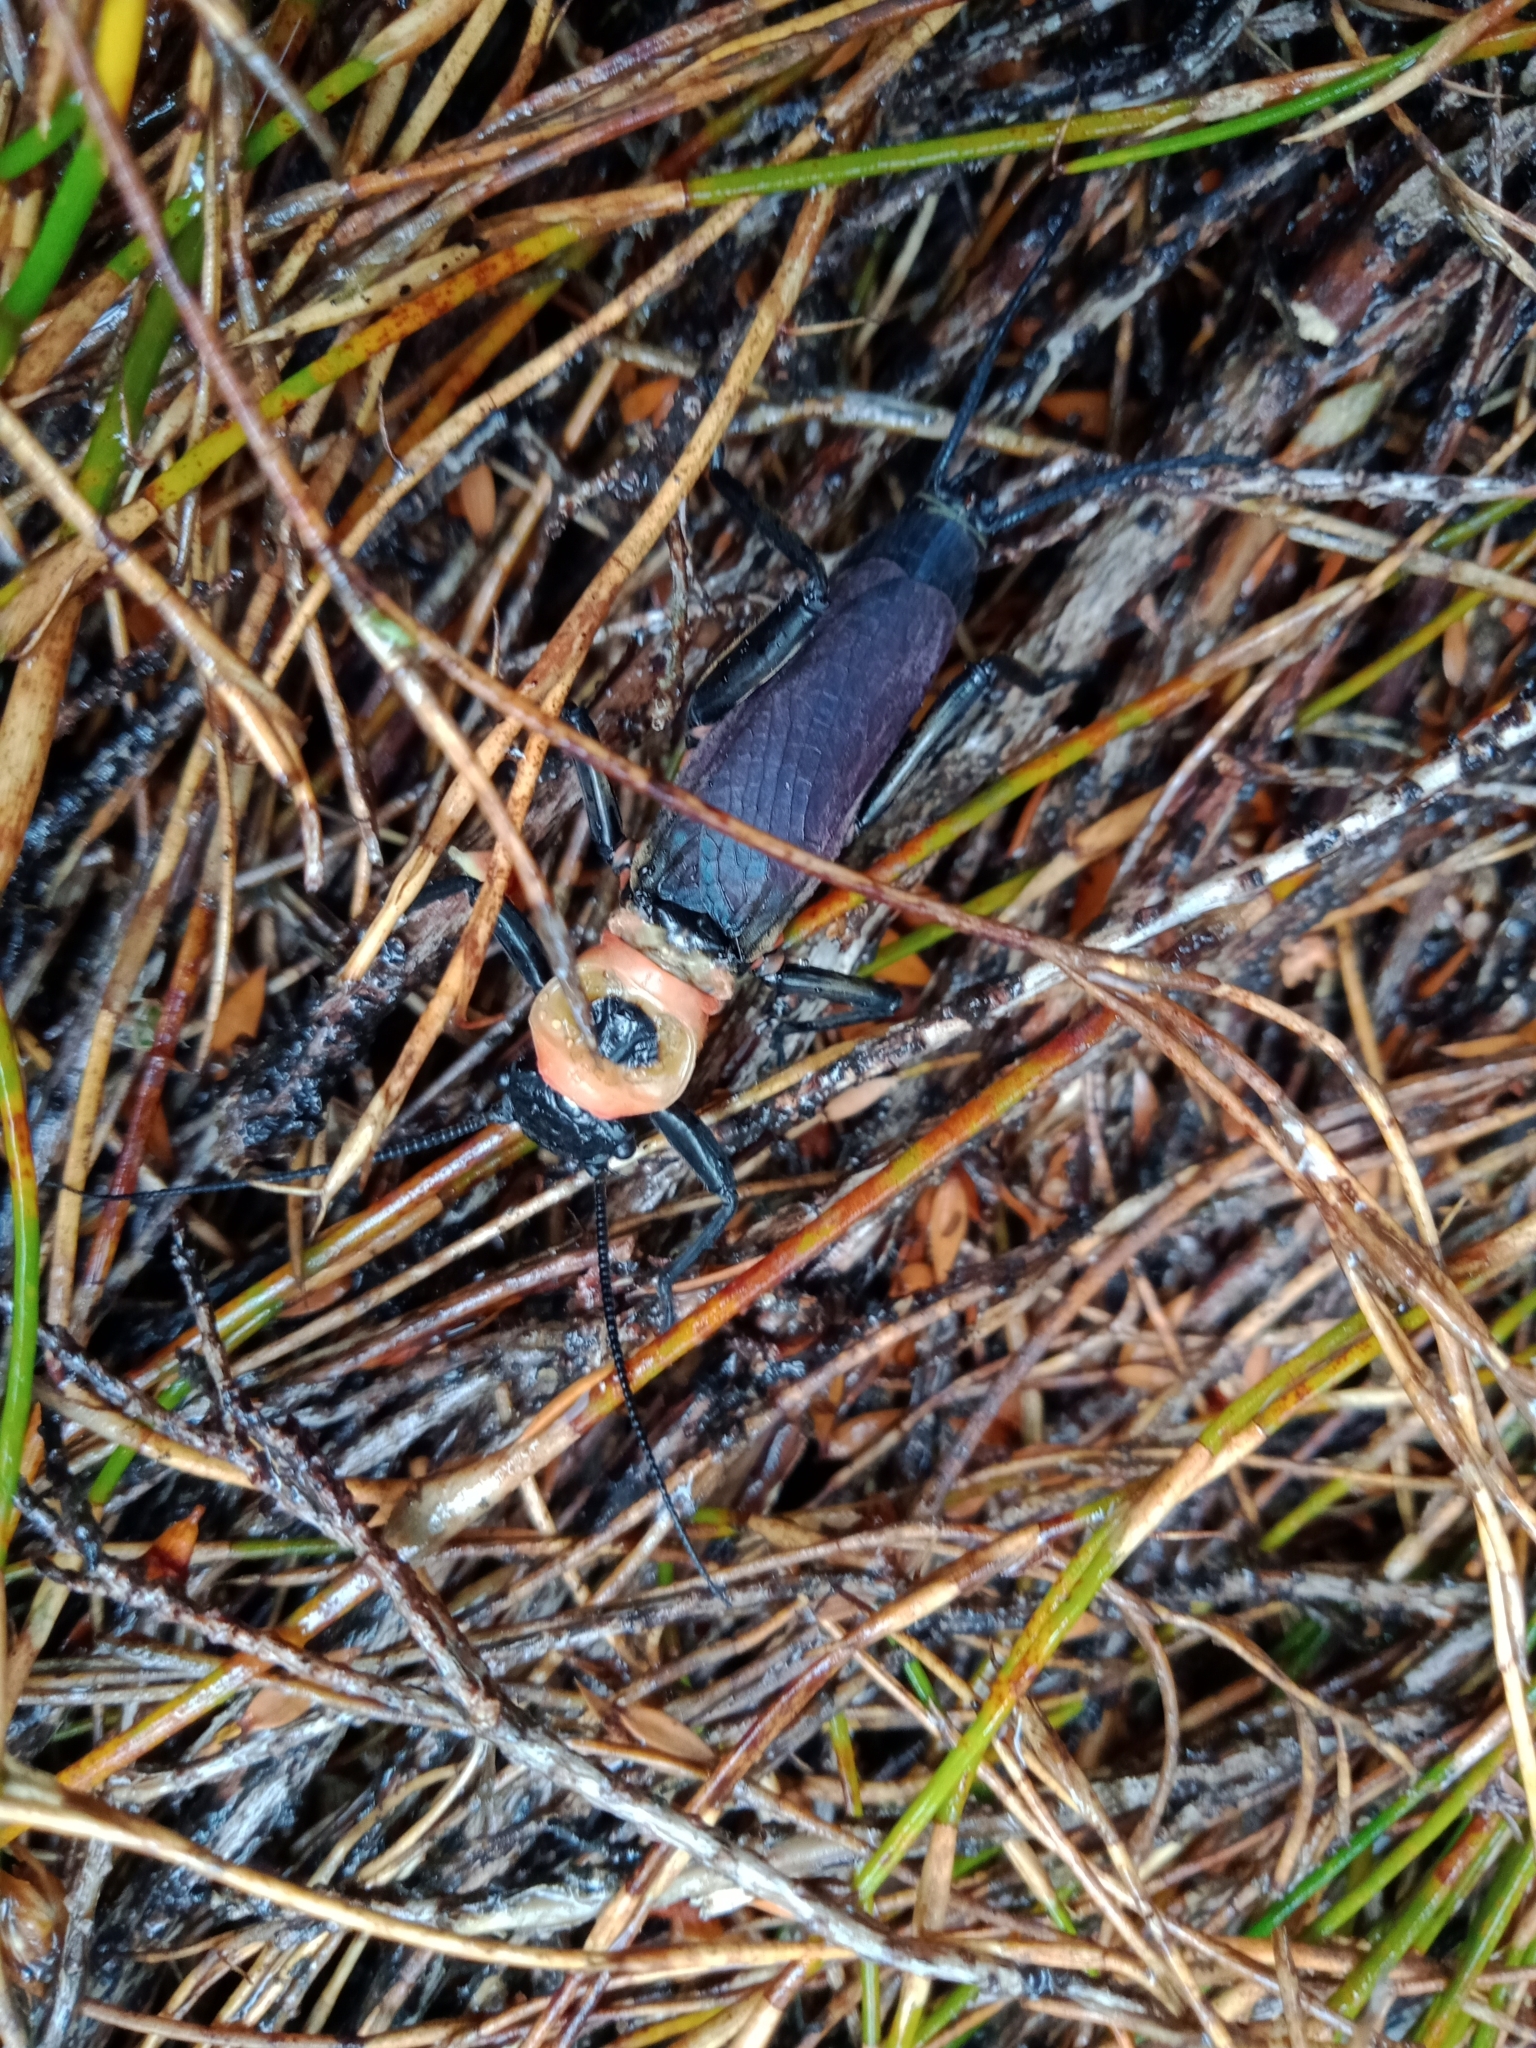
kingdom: Animalia
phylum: Arthropoda
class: Insecta
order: Plecoptera
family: Eustheniidae
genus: Thaumatoperla
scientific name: Thaumatoperla alpina
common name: Alpine stonefly
